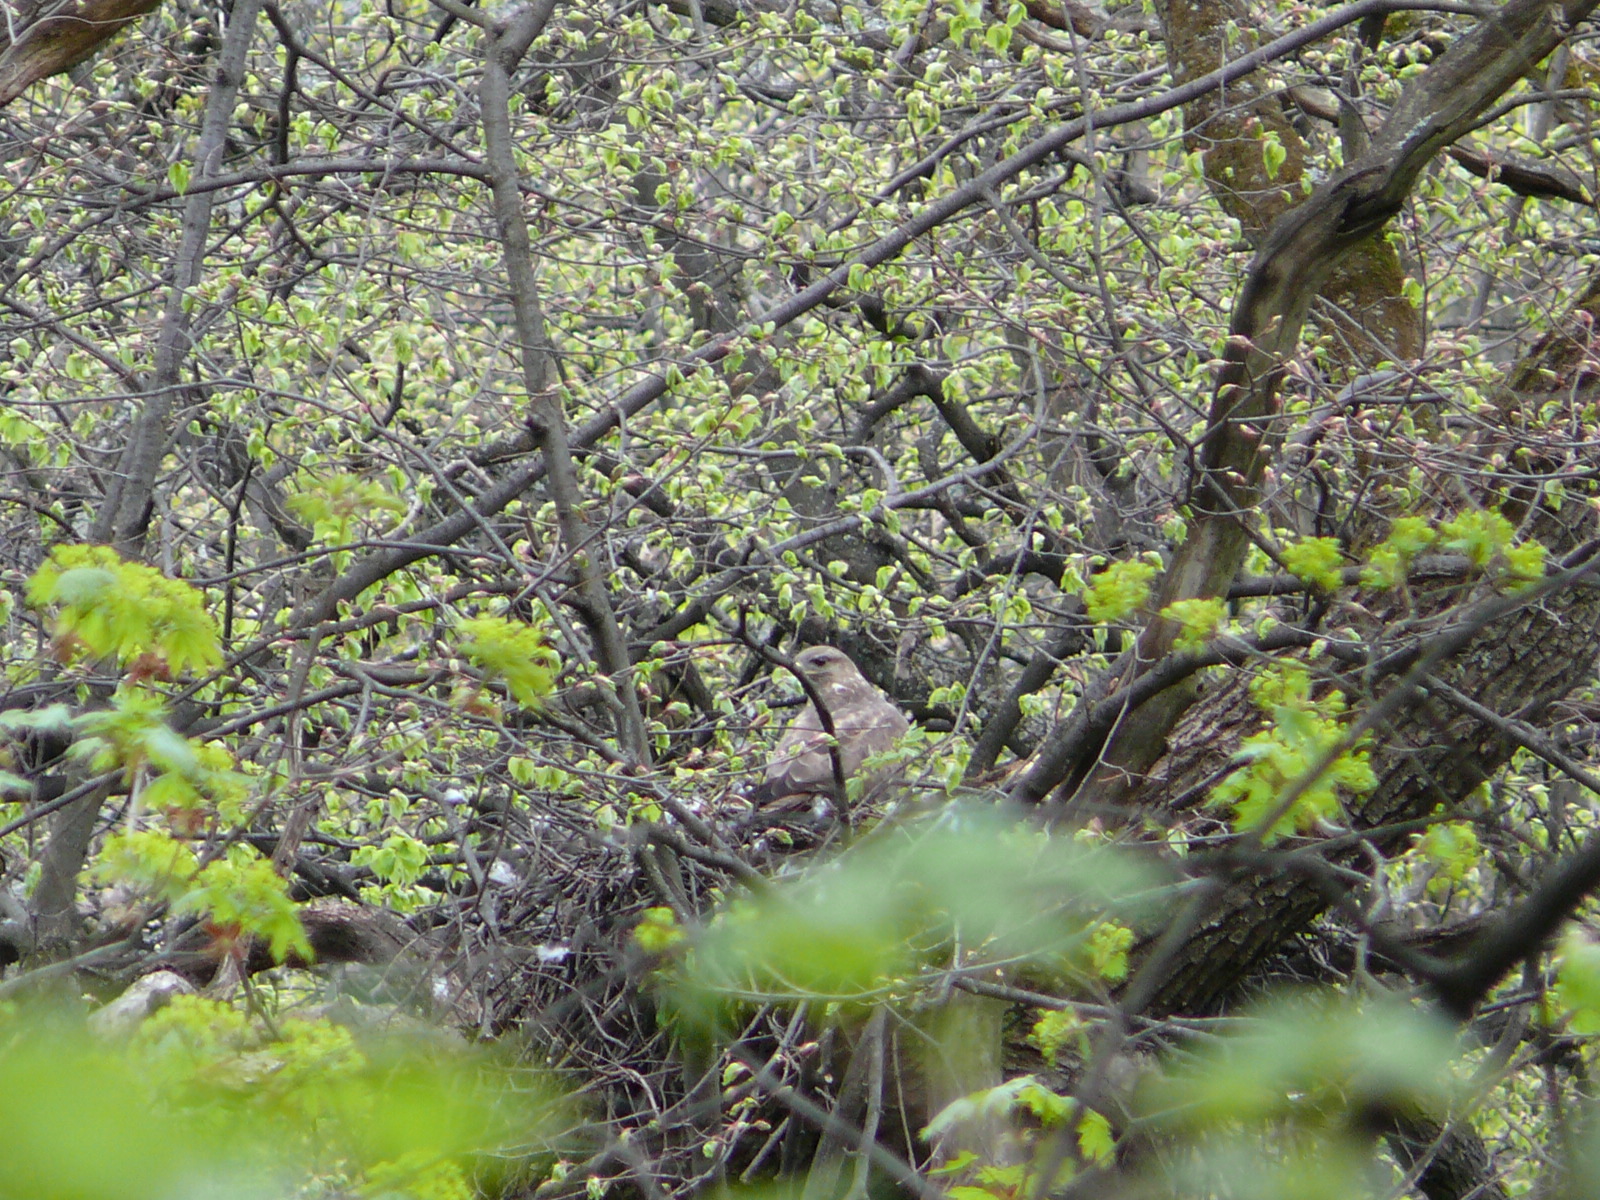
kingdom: Animalia
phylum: Chordata
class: Aves
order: Accipitriformes
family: Accipitridae
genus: Buteo
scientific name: Buteo buteo
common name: Common buzzard
